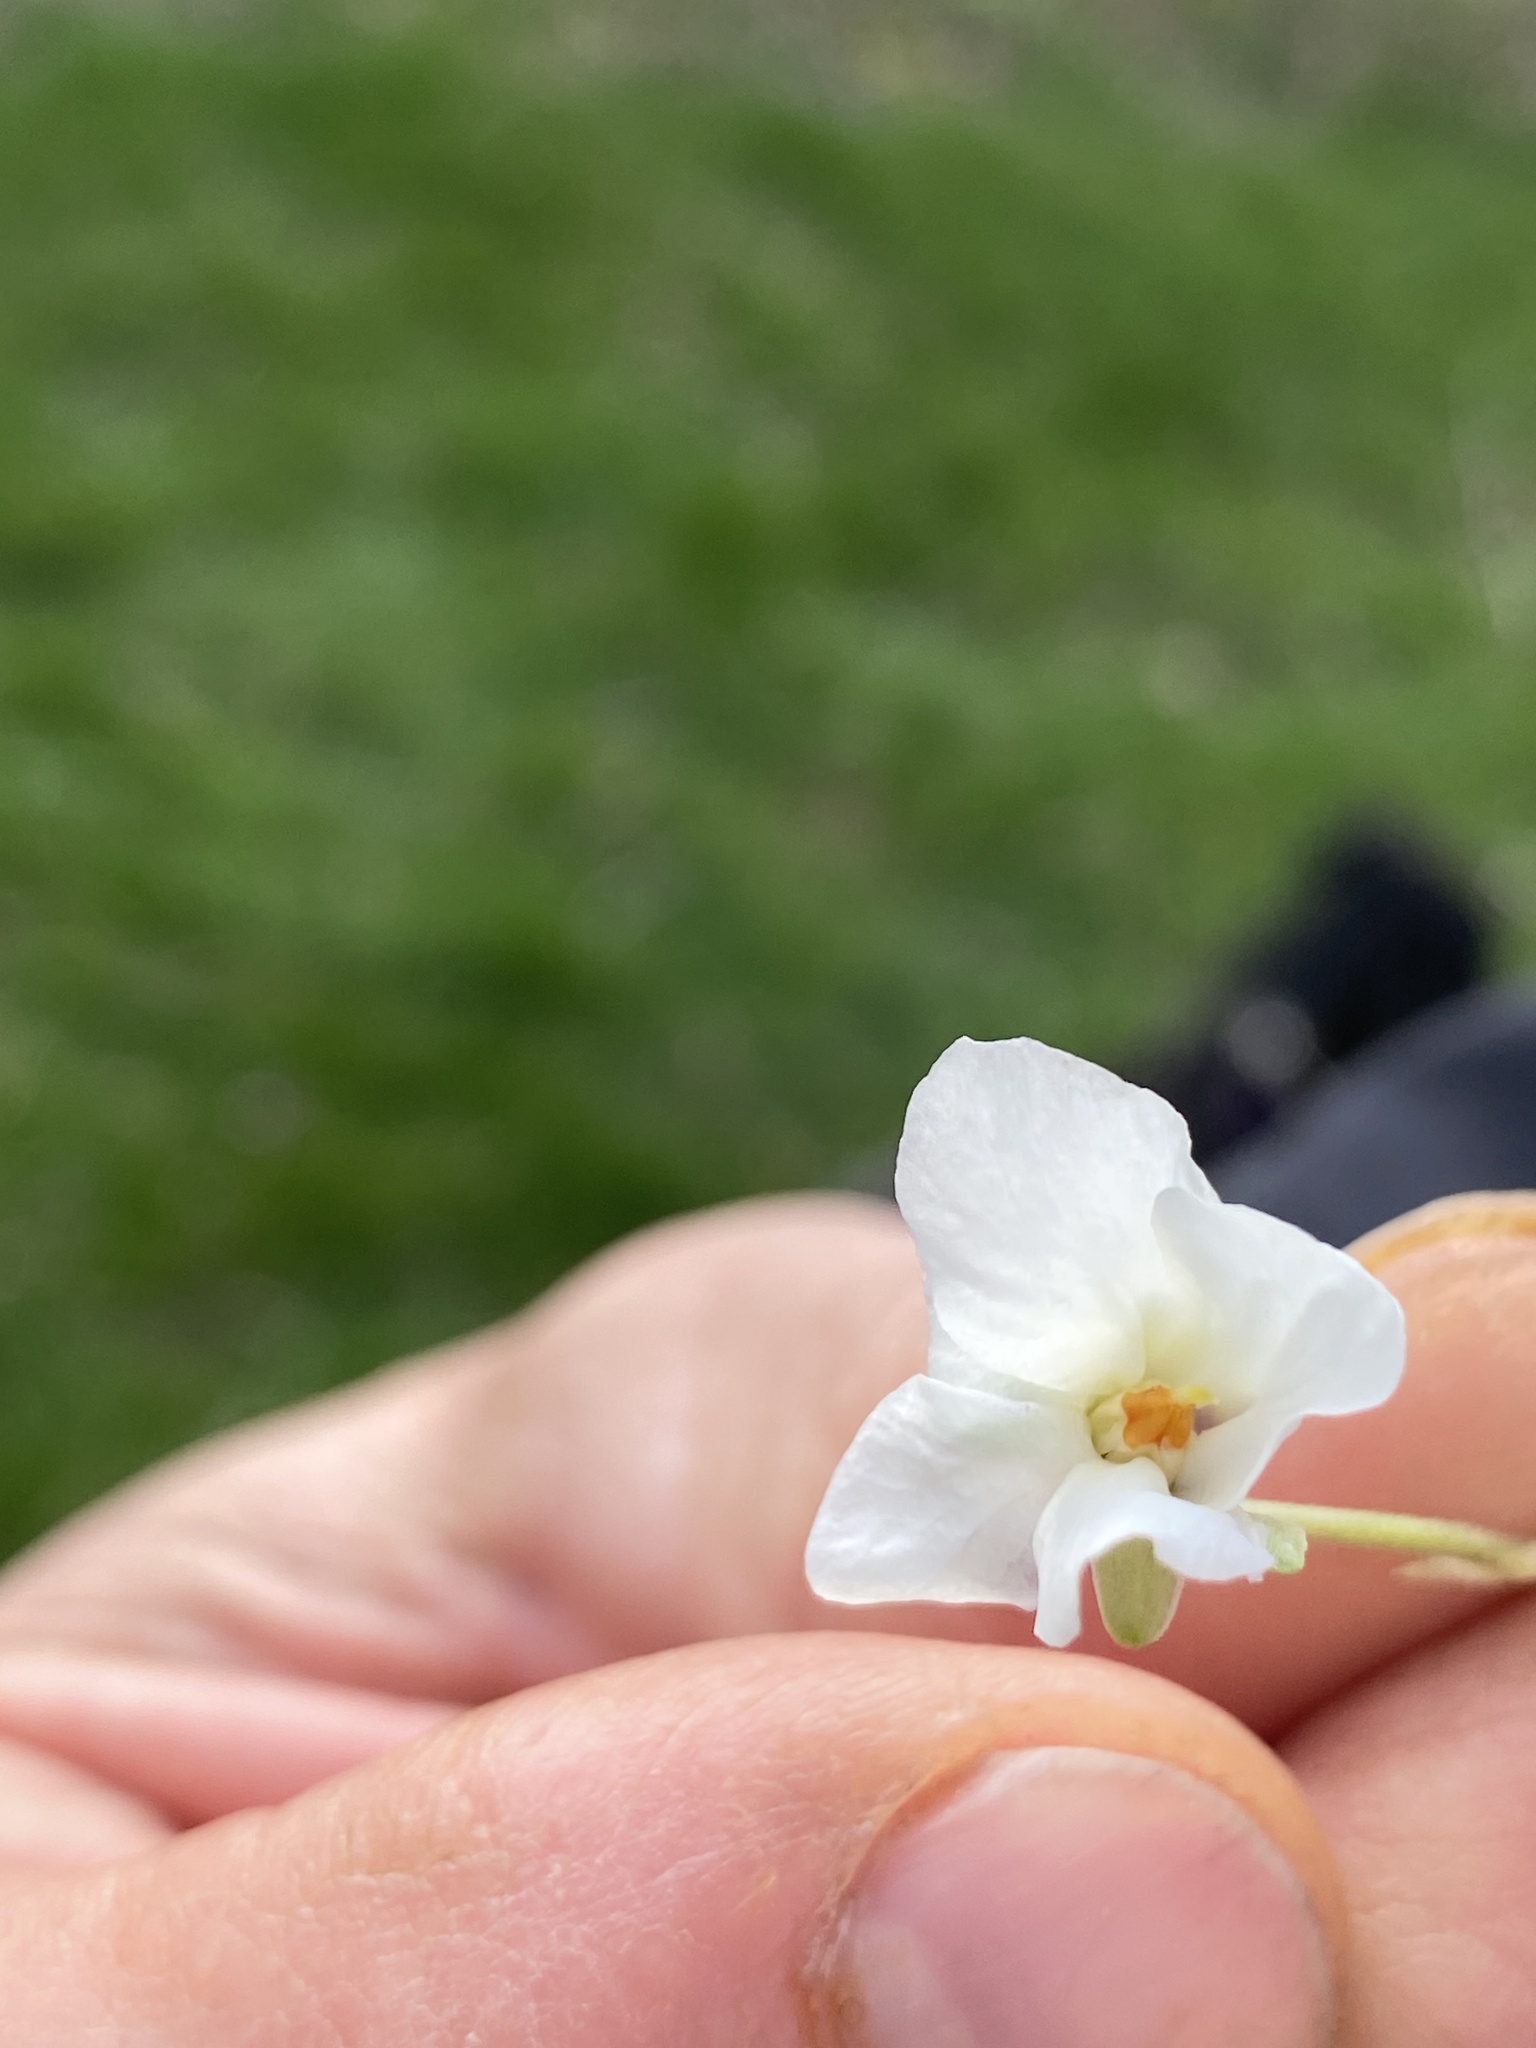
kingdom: Plantae
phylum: Tracheophyta
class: Magnoliopsida
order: Malpighiales
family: Violaceae
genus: Viola
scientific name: Viola odorata
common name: Sweet violet
